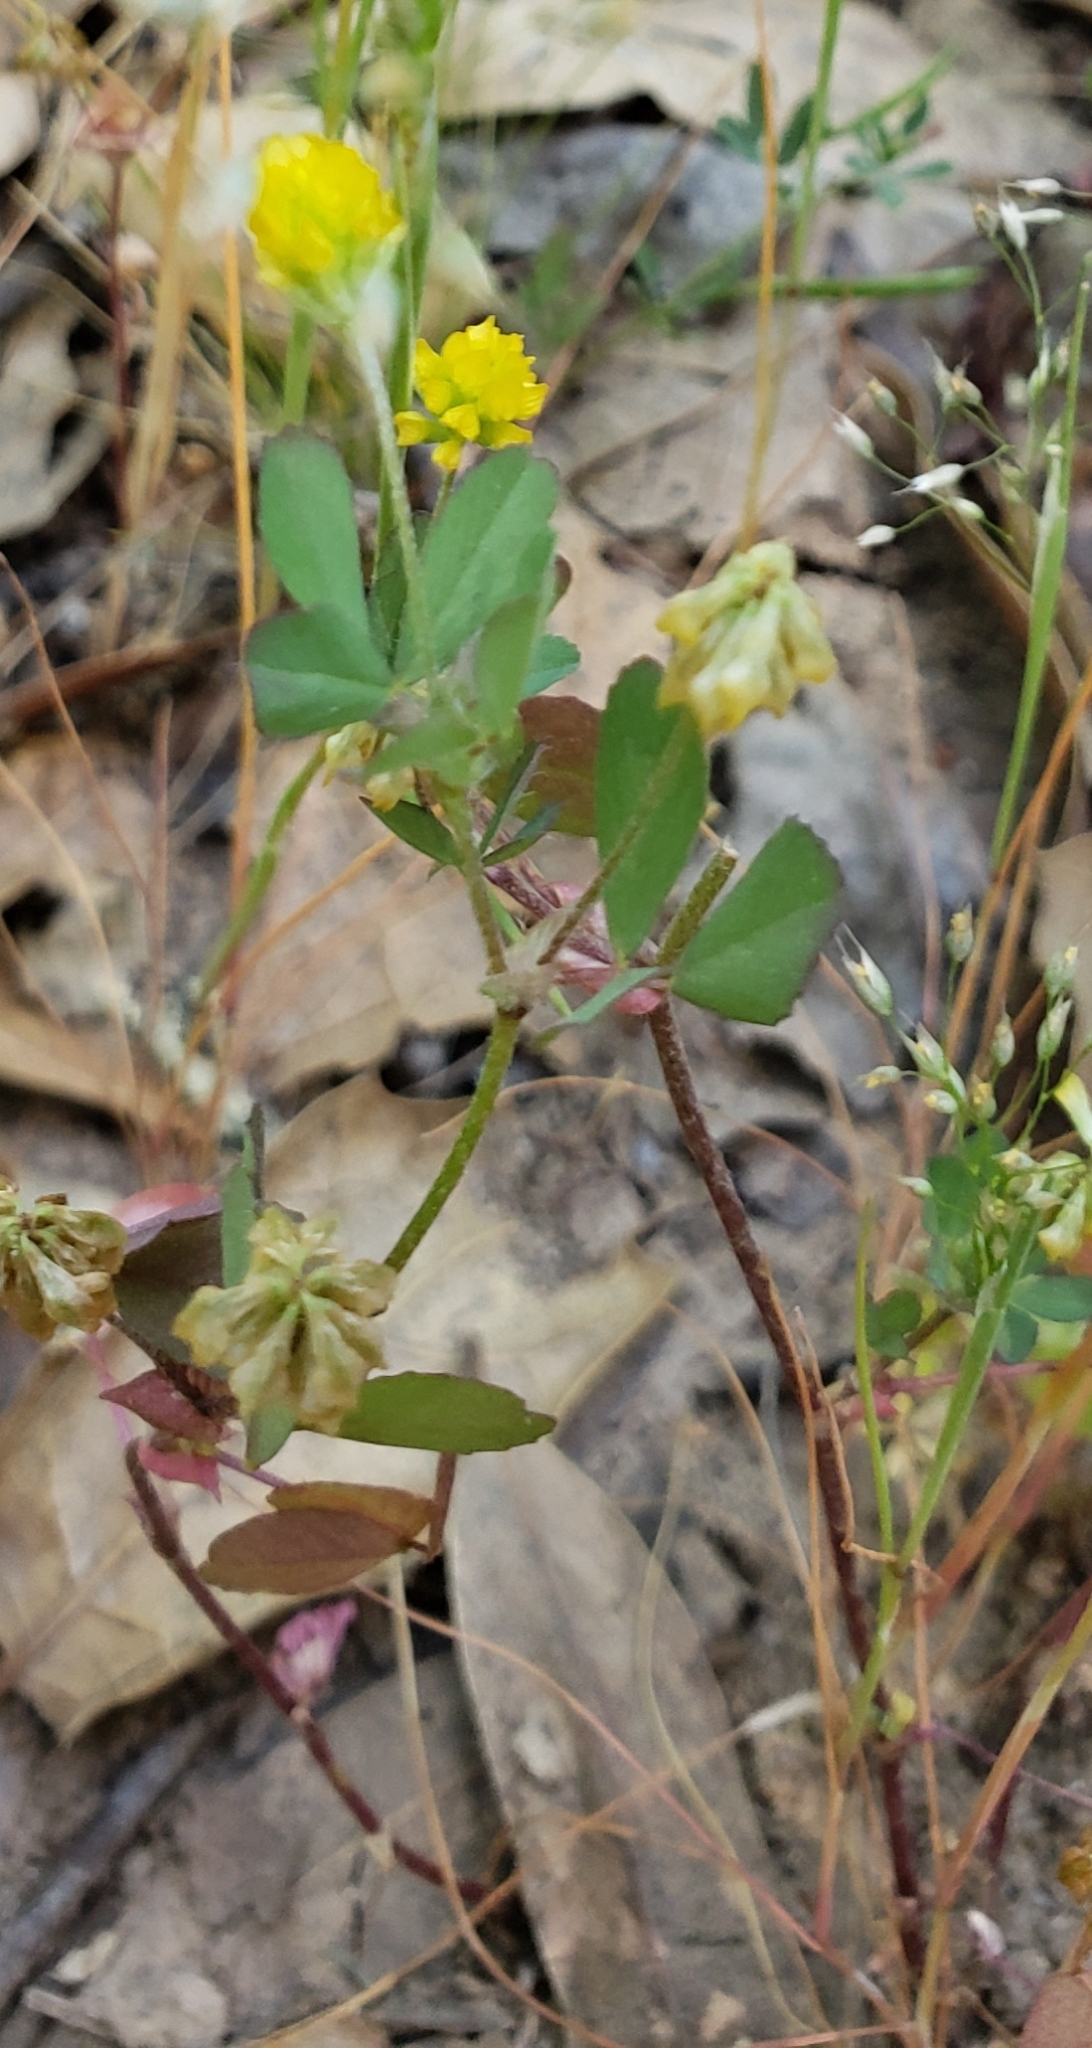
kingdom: Plantae
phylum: Tracheophyta
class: Magnoliopsida
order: Fabales
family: Fabaceae
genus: Trifolium
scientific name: Trifolium dubium
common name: Suckling clover
